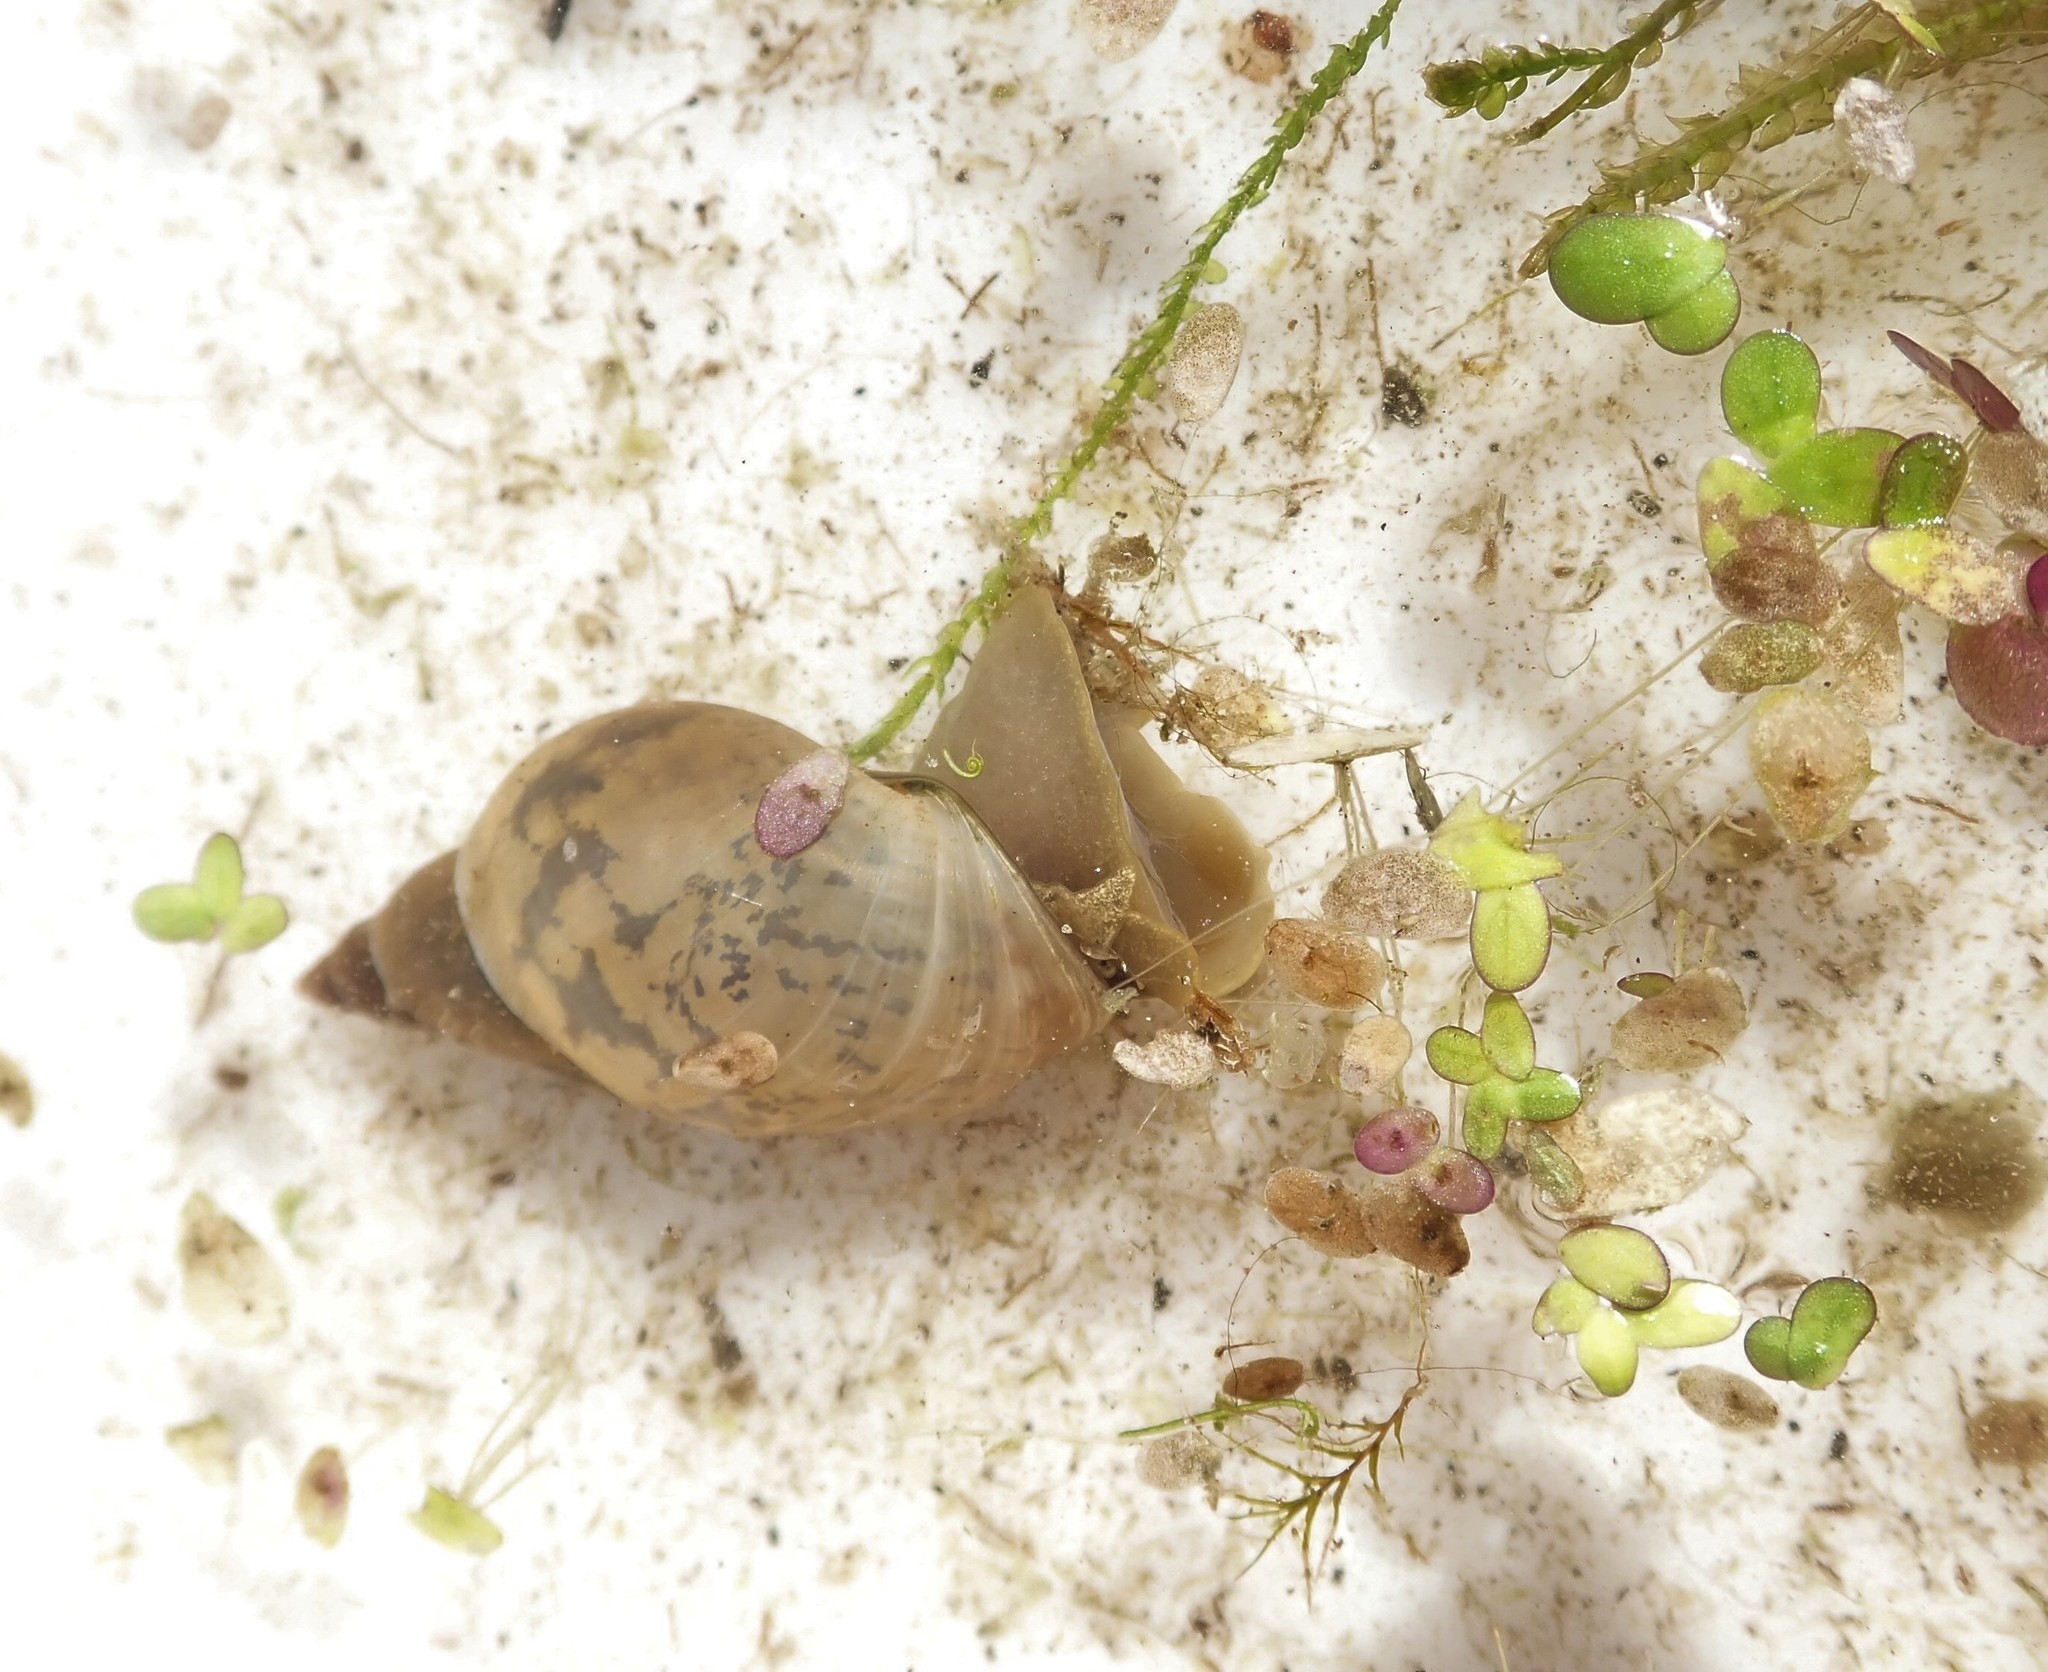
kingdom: Animalia
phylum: Mollusca
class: Gastropoda
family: Lymnaeidae
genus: Lymnaea
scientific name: Lymnaea stagnalis
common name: Great pond snail
